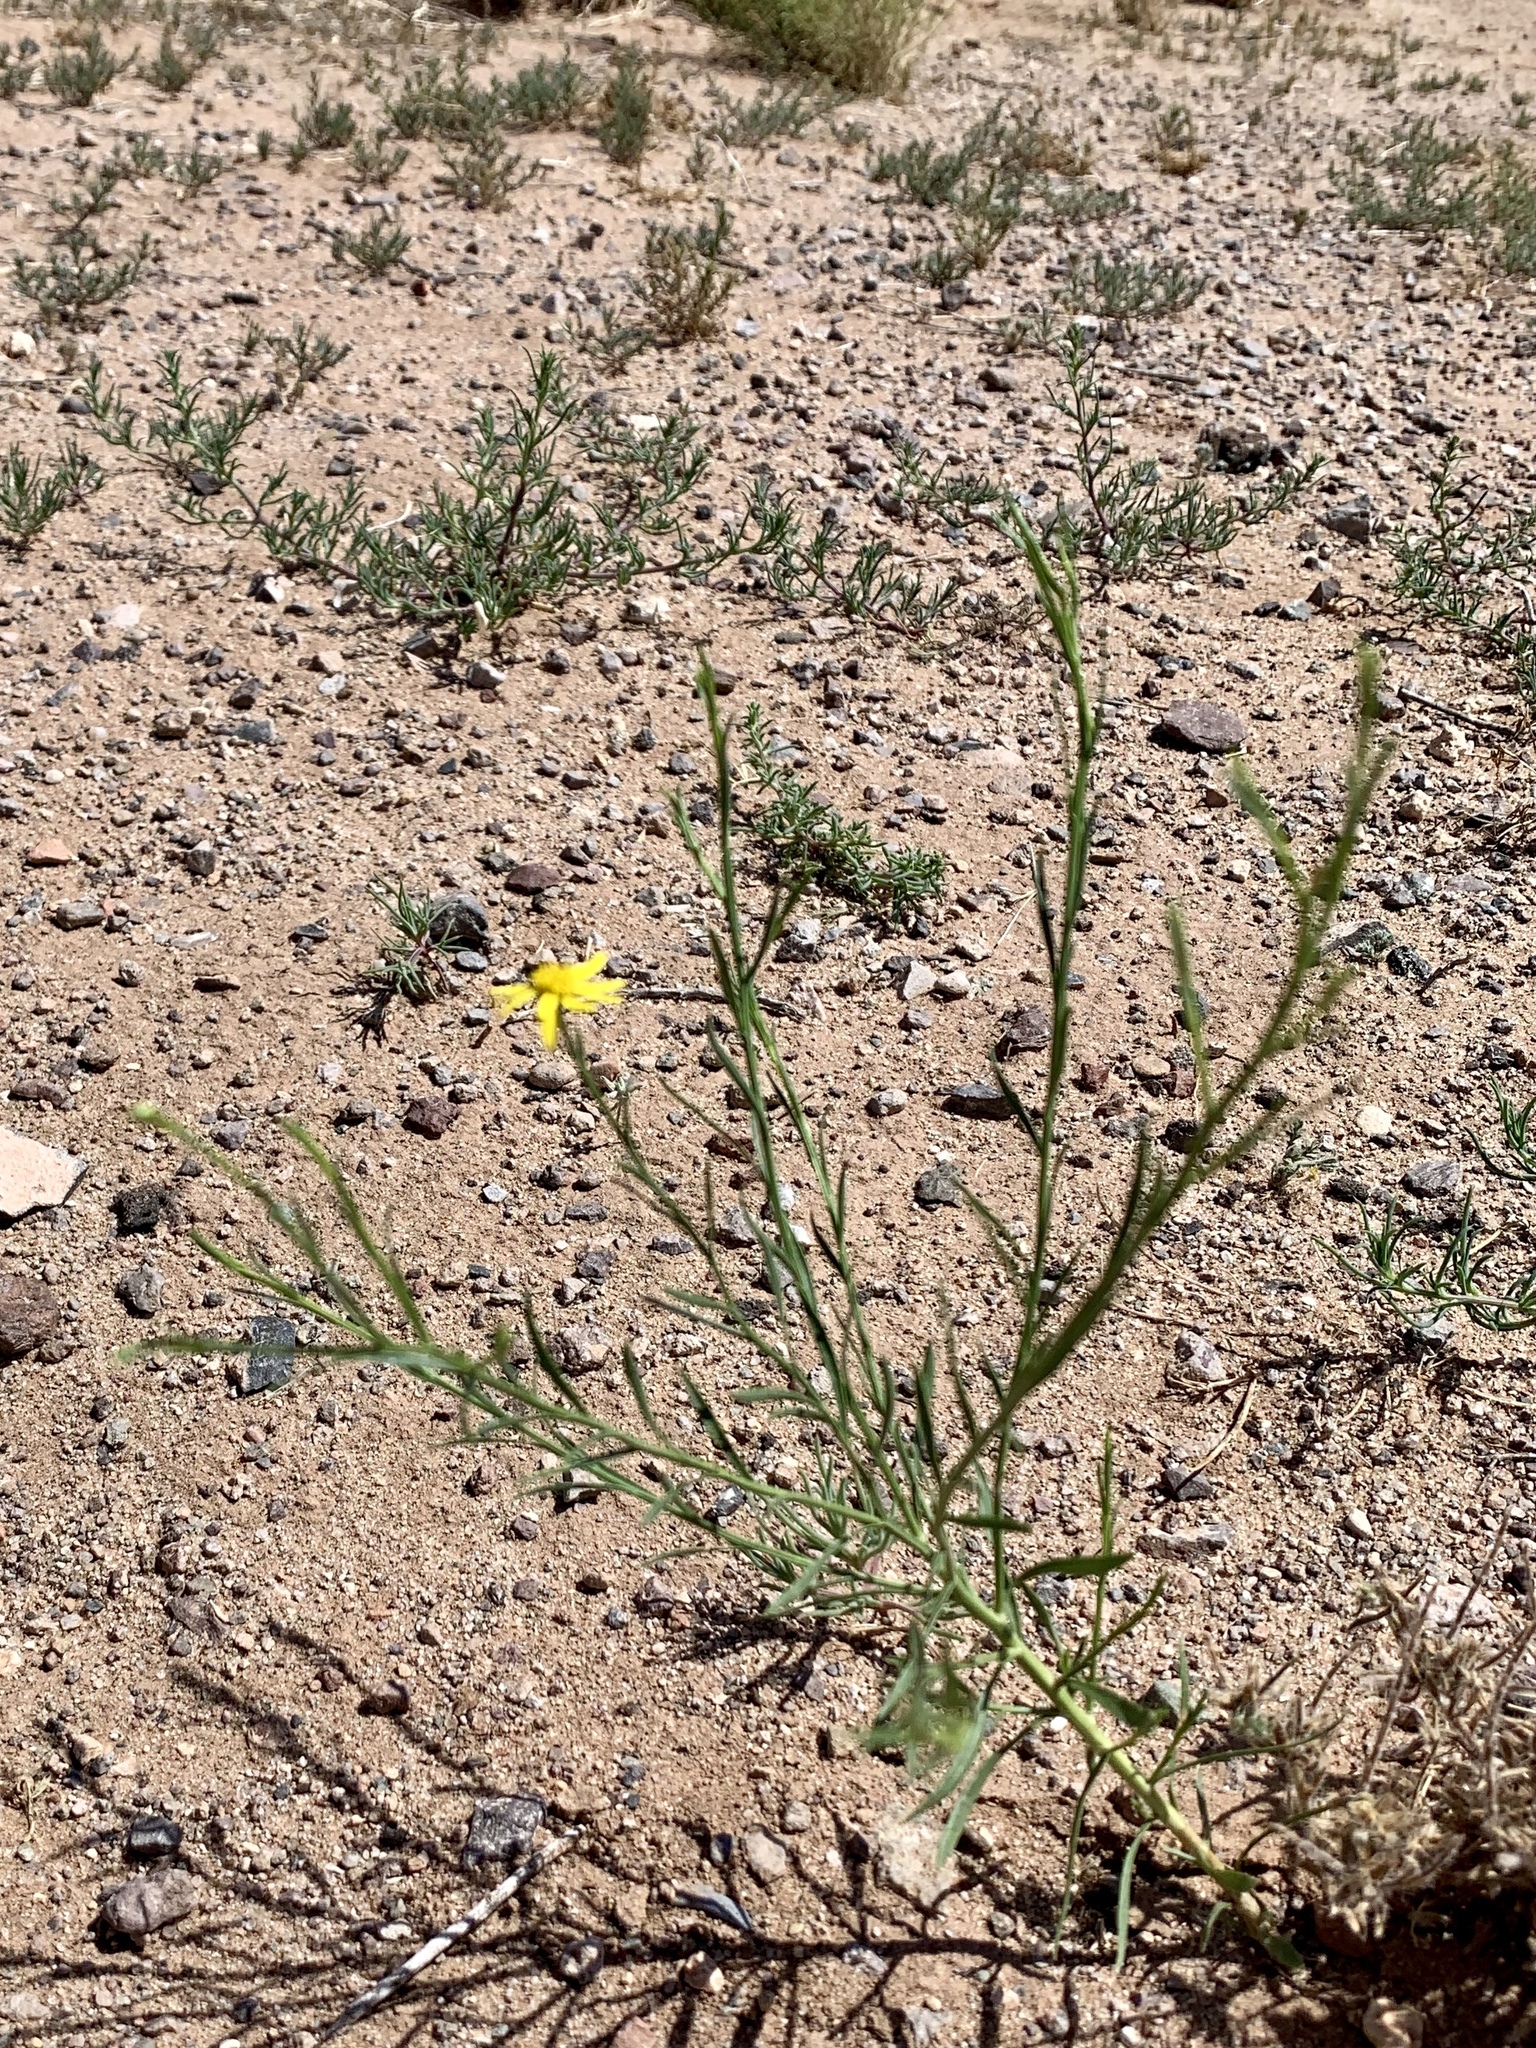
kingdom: Plantae
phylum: Tracheophyta
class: Magnoliopsida
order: Asterales
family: Asteraceae
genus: Gutierrezia
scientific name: Gutierrezia sphaerocephala
